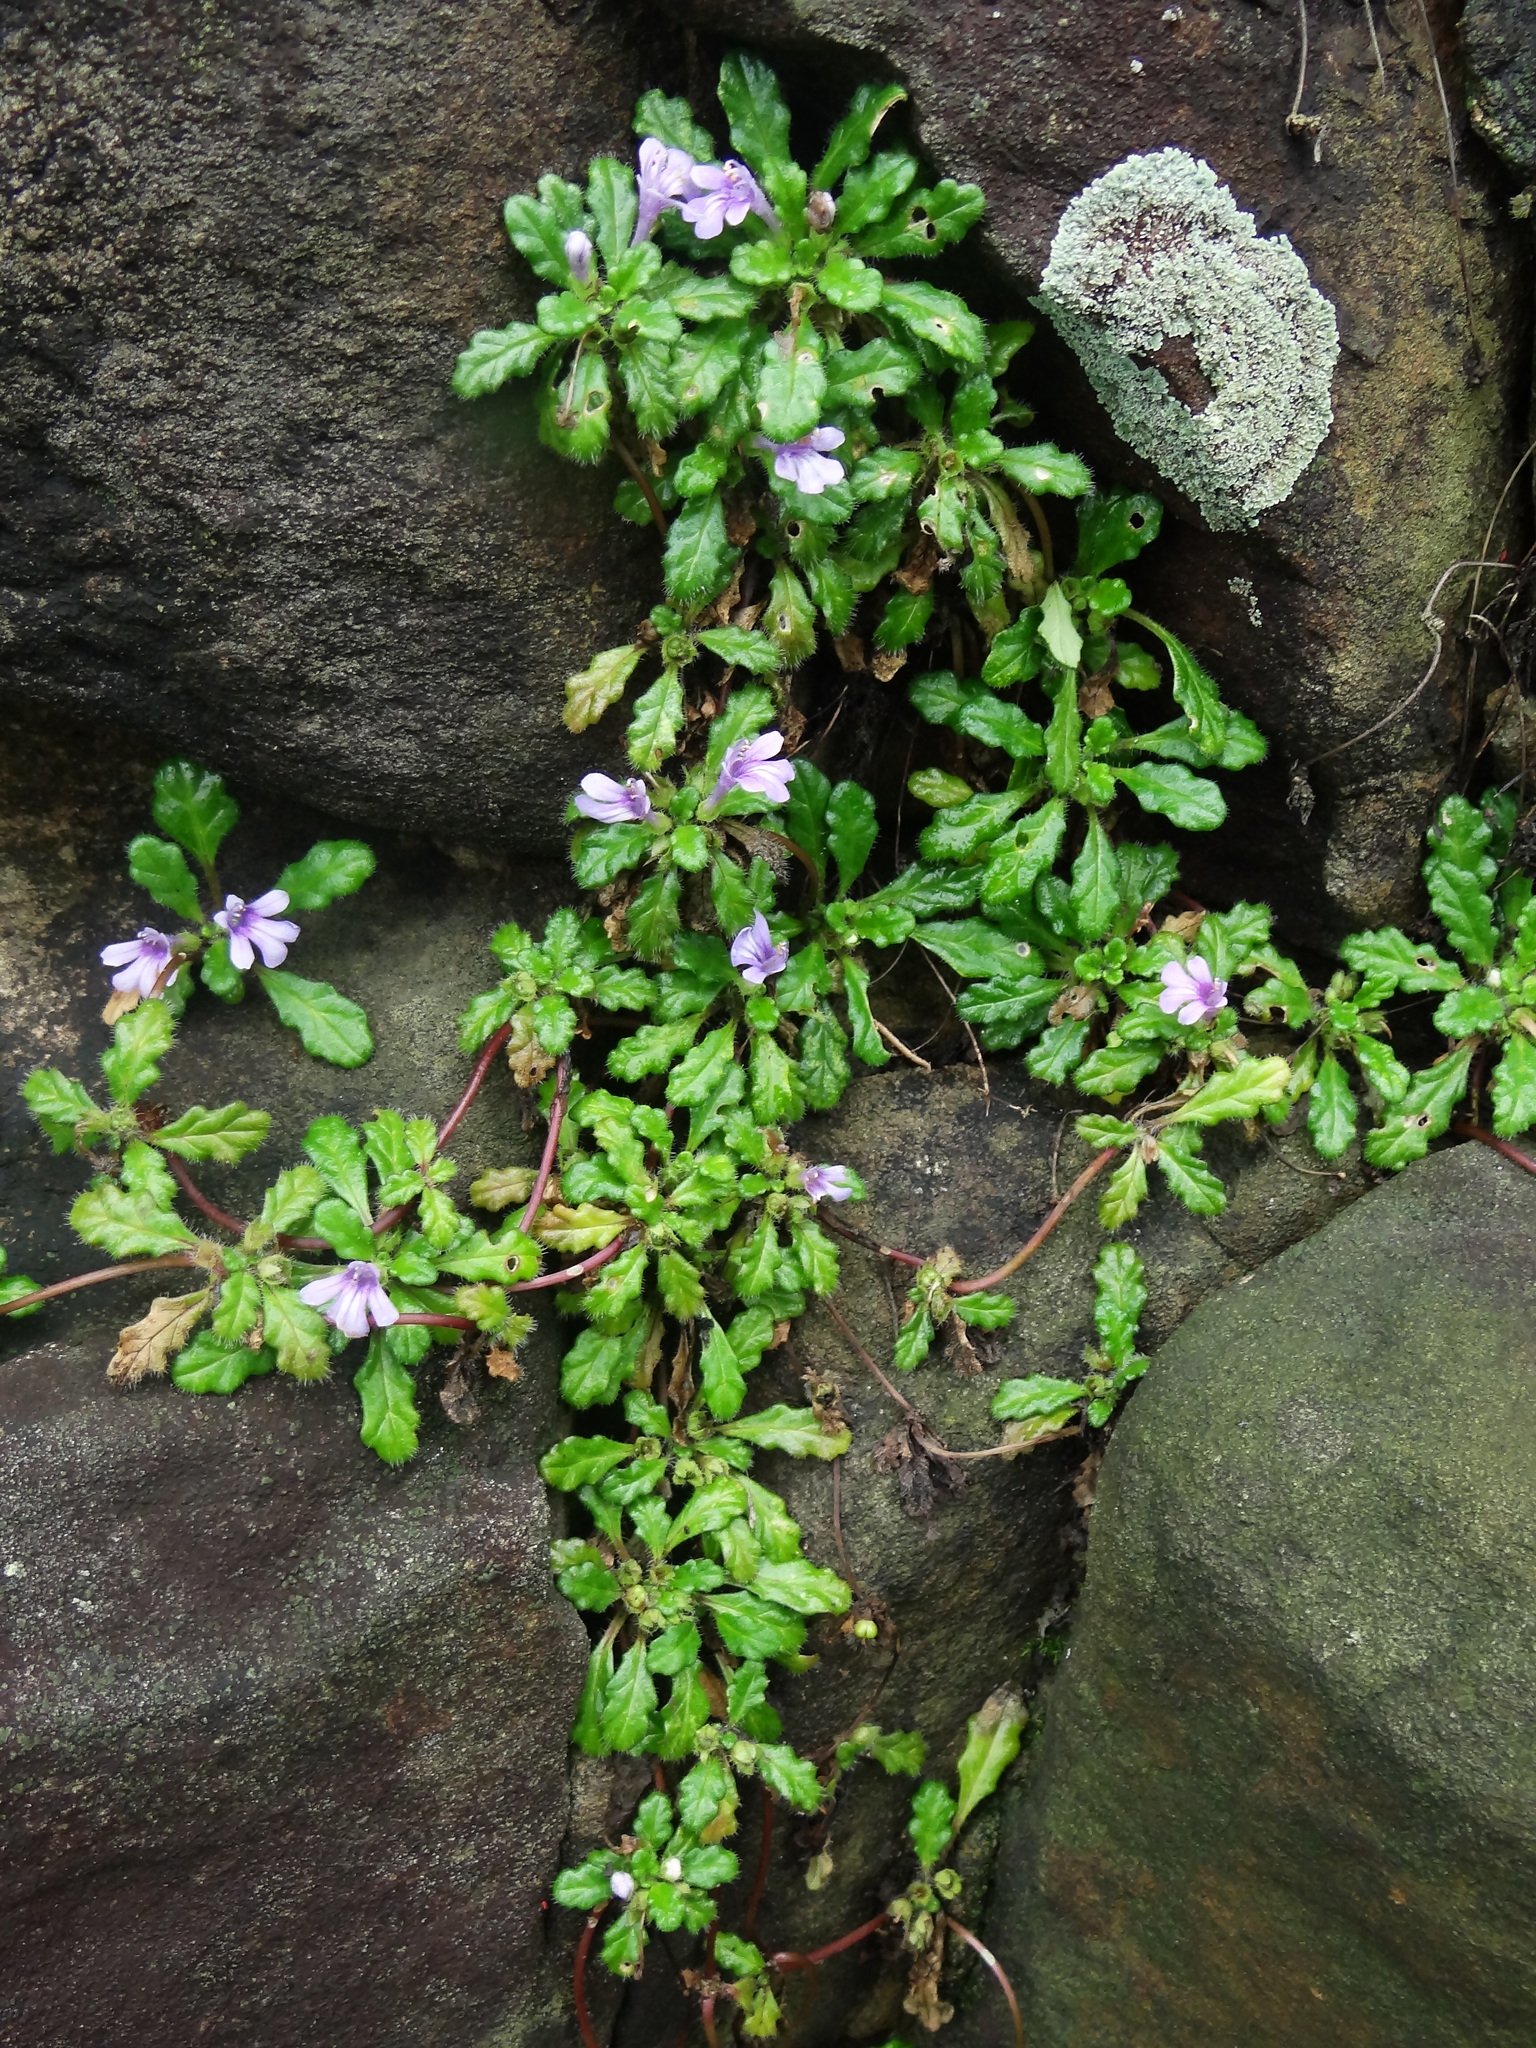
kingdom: Plantae
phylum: Tracheophyta
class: Magnoliopsida
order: Lamiales
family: Lamiaceae
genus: Ajuga
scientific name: Ajuga pygmaea
